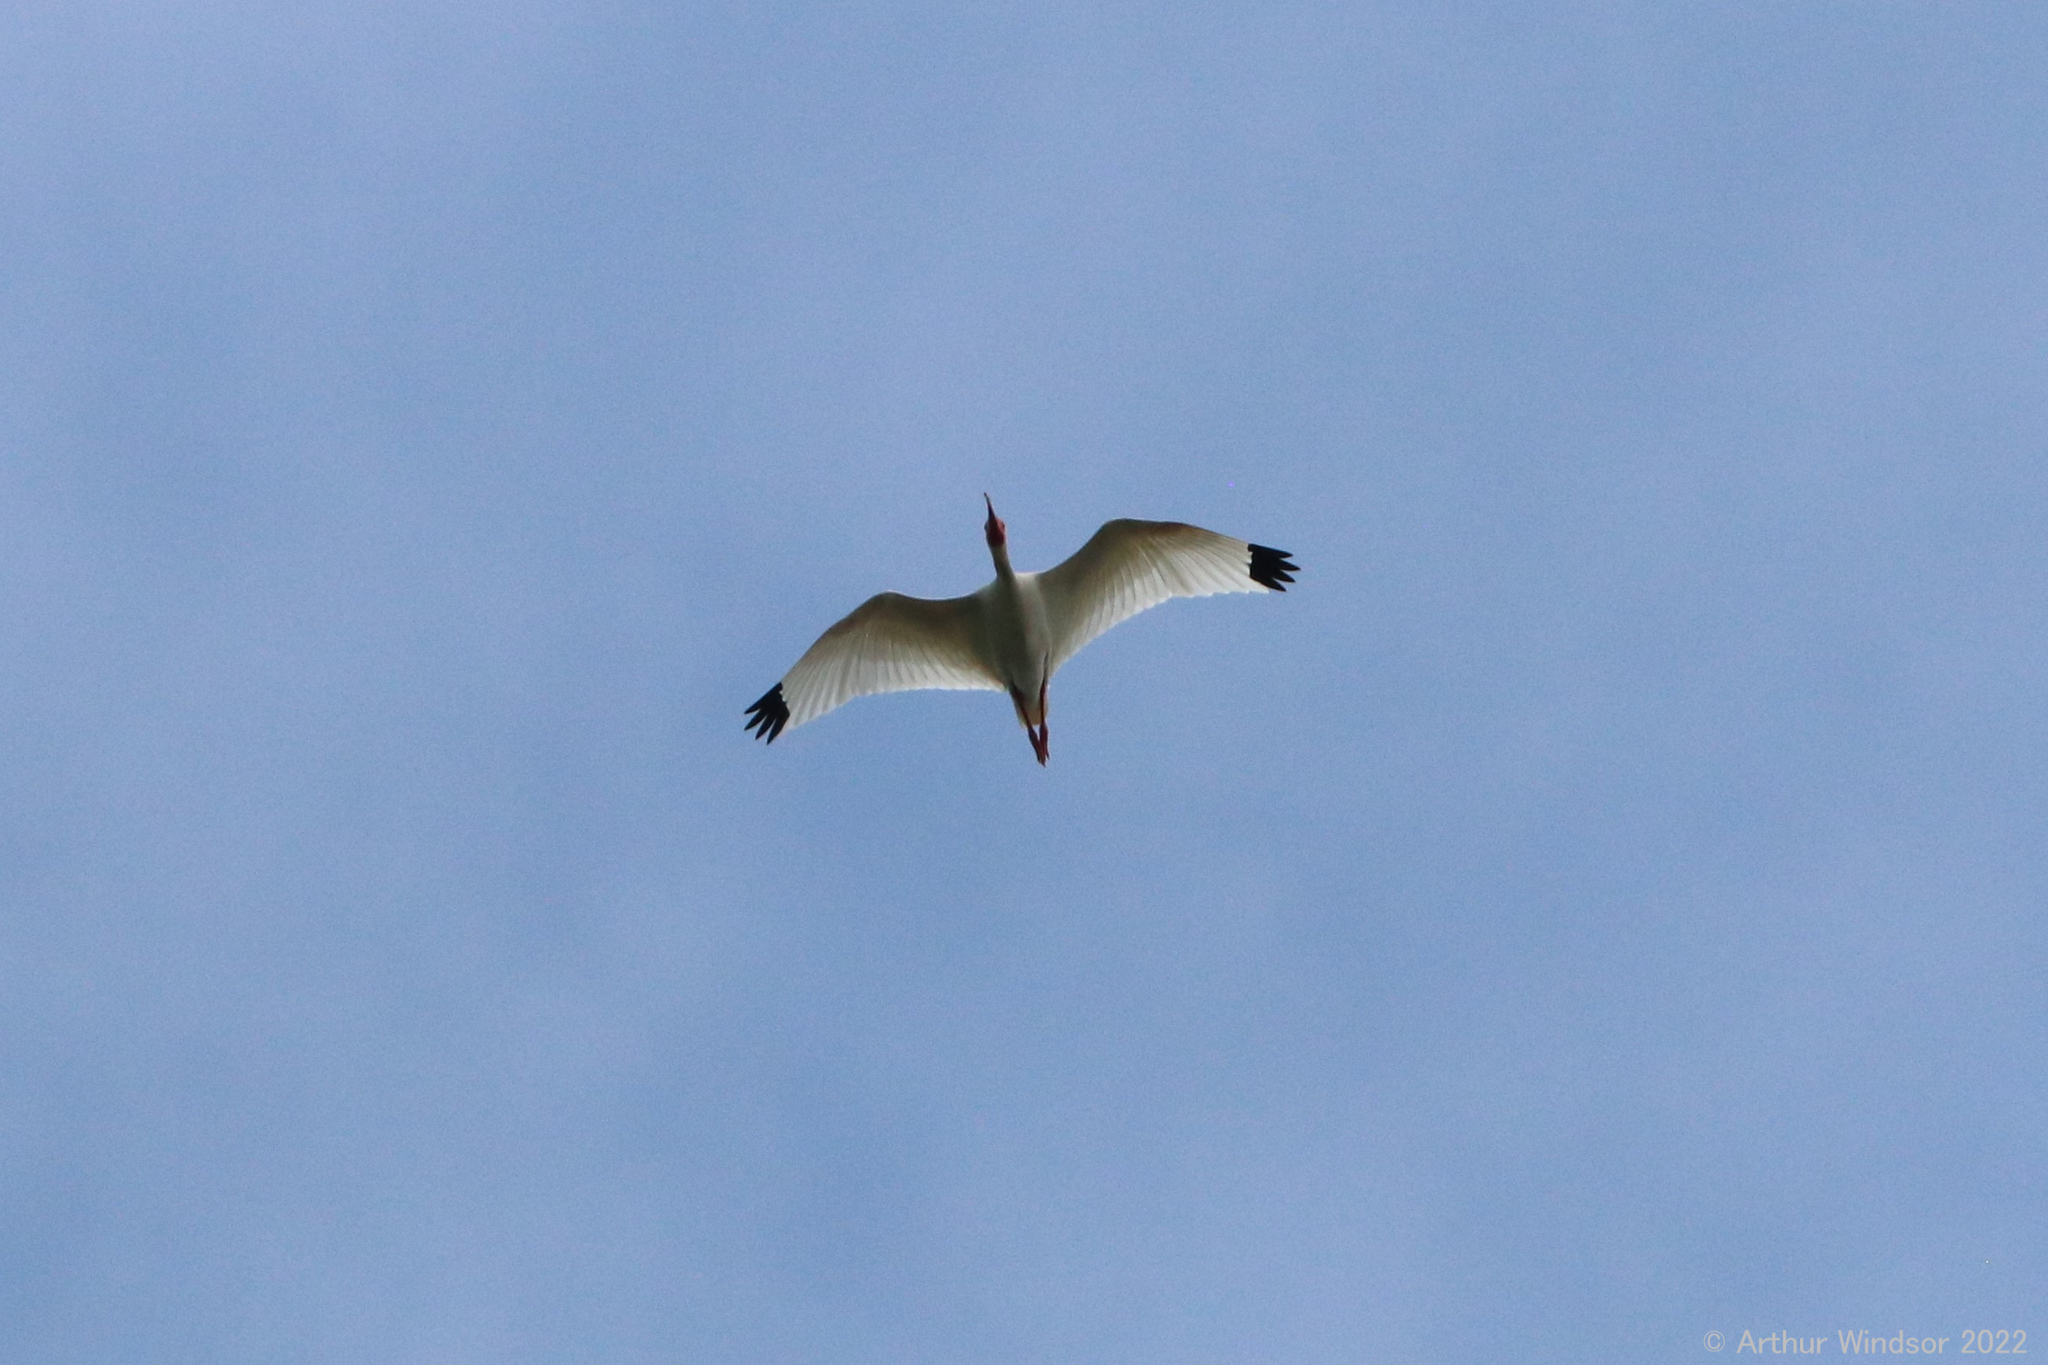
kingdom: Animalia
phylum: Chordata
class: Aves
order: Pelecaniformes
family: Threskiornithidae
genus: Eudocimus
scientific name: Eudocimus albus
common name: White ibis
